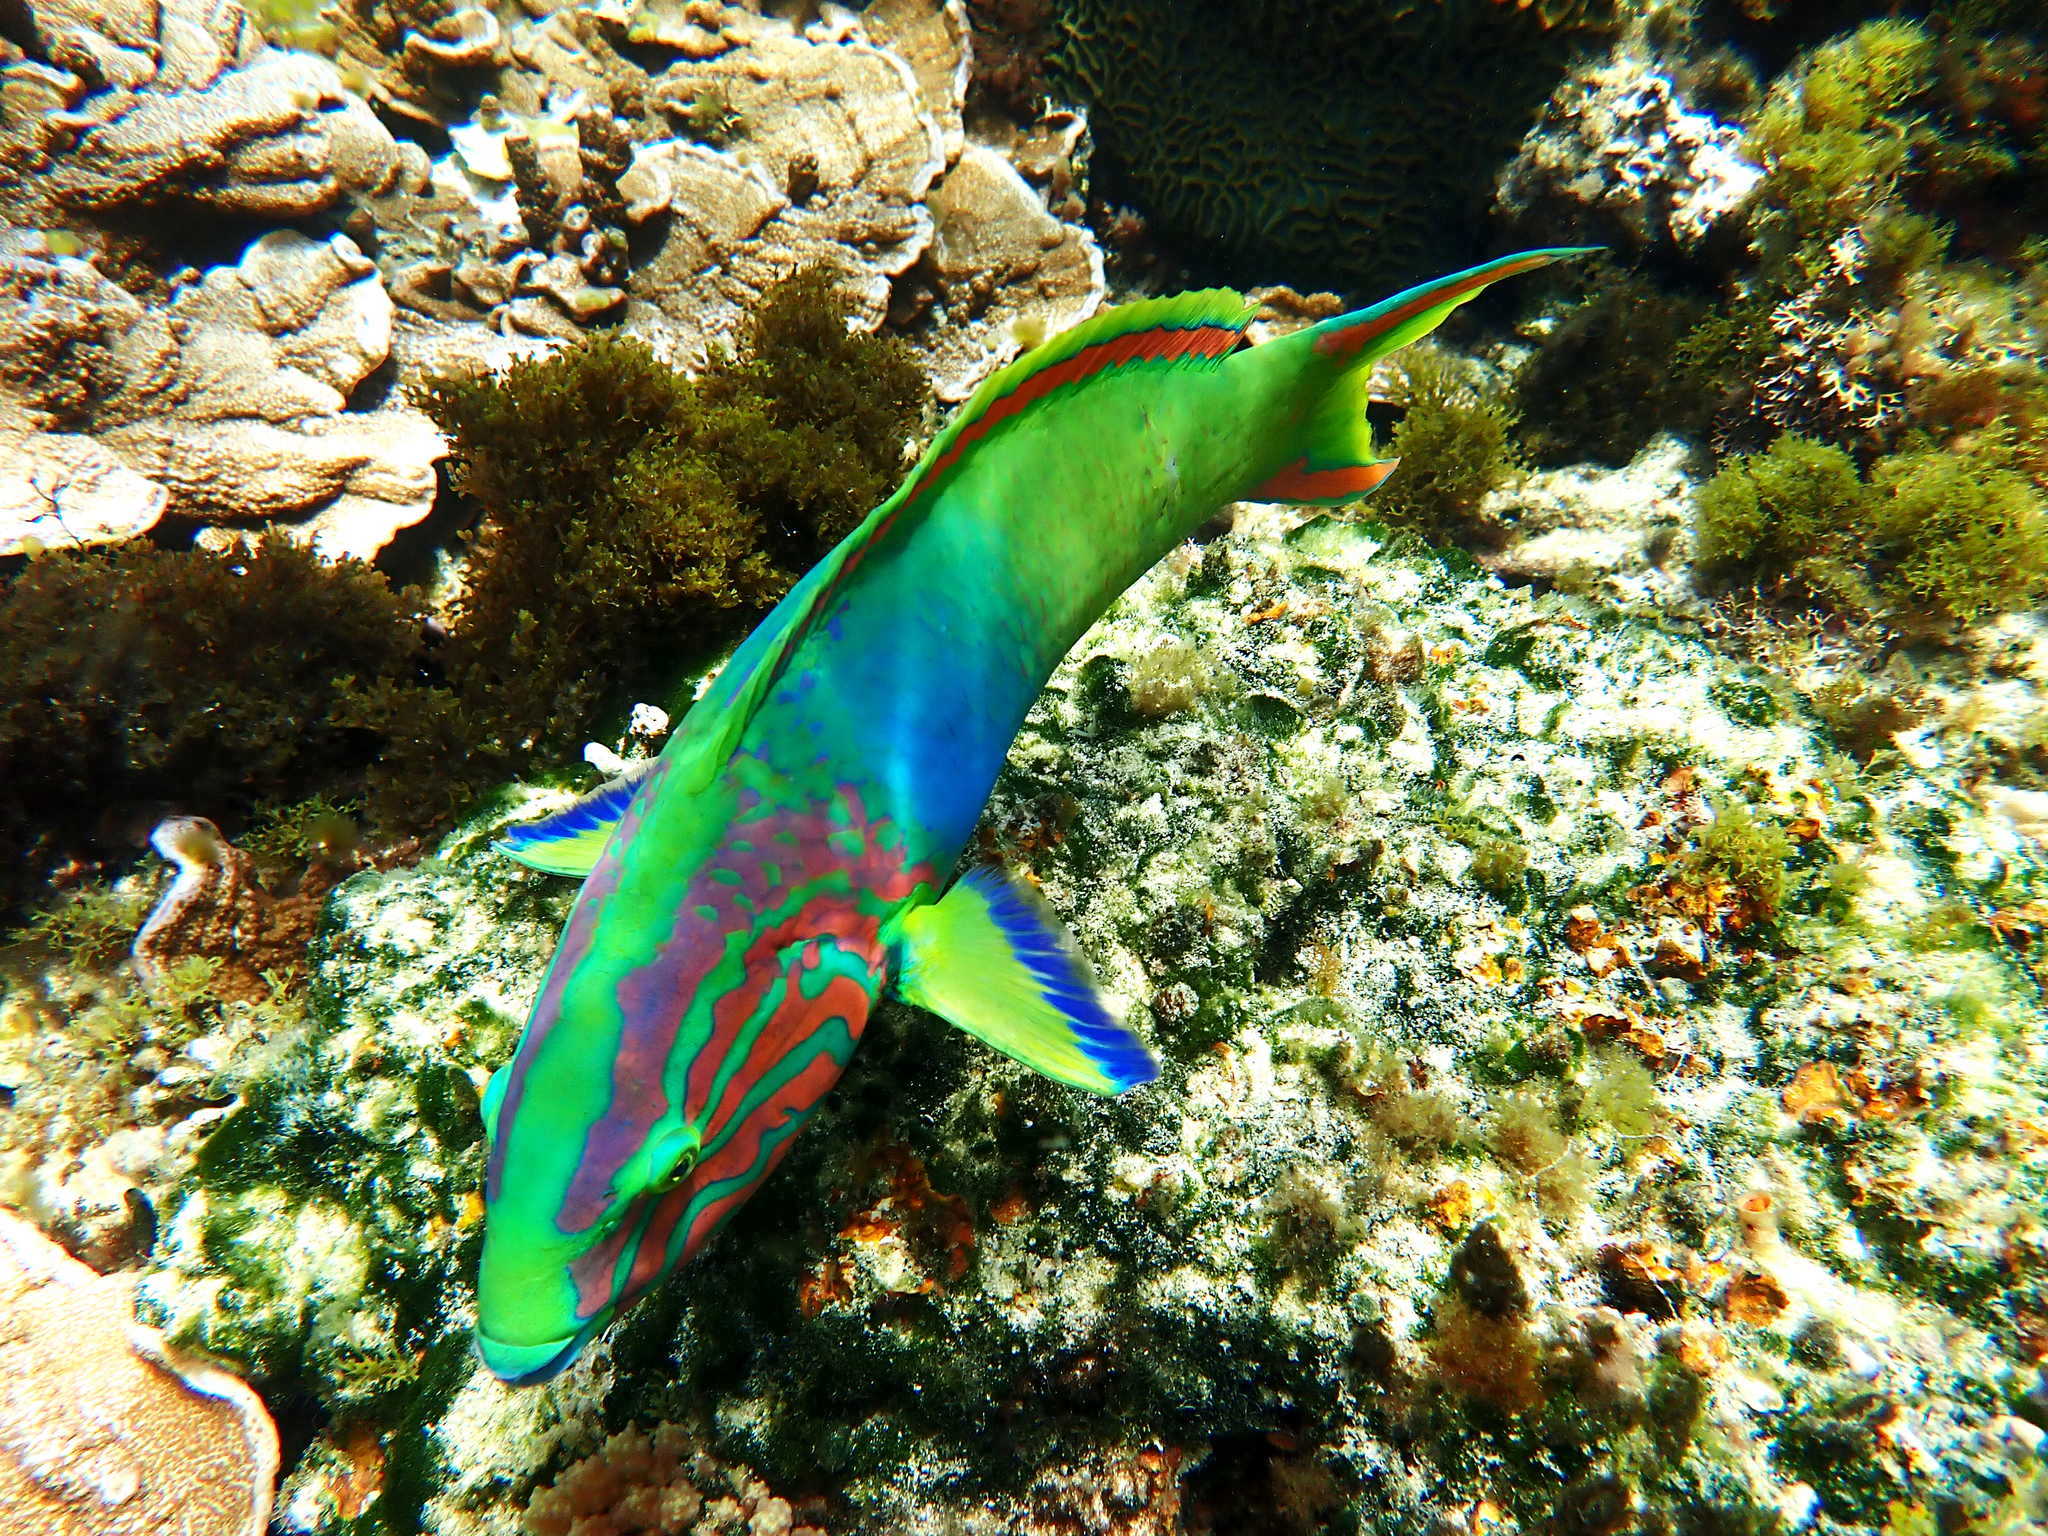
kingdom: Animalia
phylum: Chordata
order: Perciformes
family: Labridae
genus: Thalassoma
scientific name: Thalassoma lutescens
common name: Green moon wrasse
